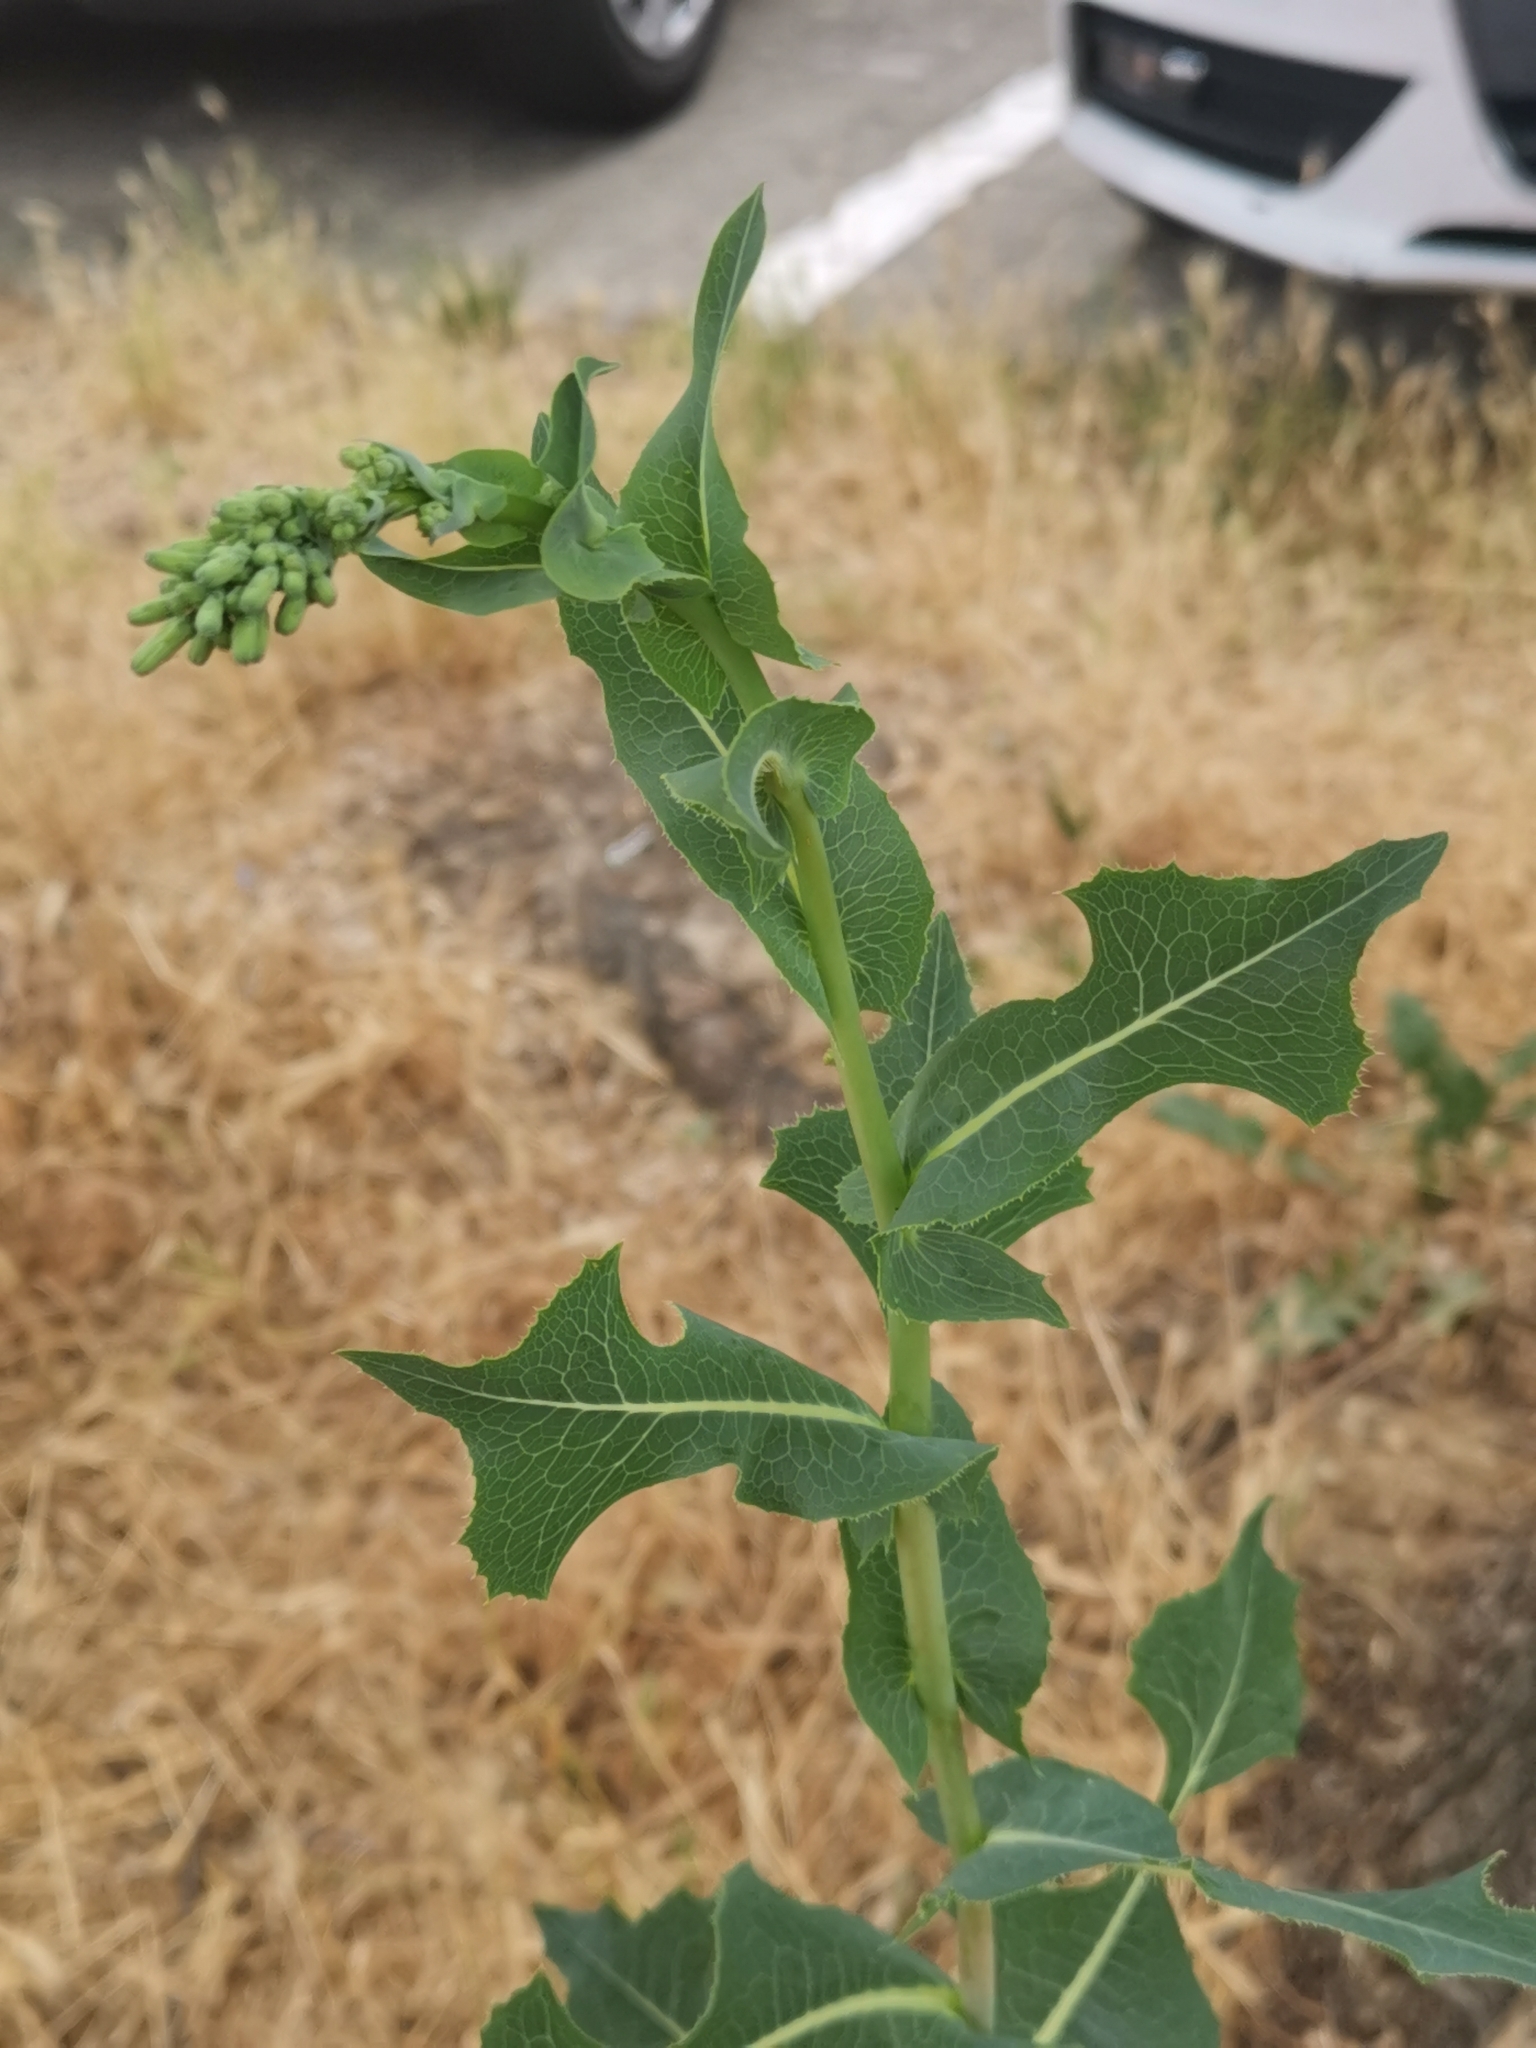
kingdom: Plantae
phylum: Tracheophyta
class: Magnoliopsida
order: Asterales
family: Asteraceae
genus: Lactuca
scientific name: Lactuca serriola
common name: Prickly lettuce
